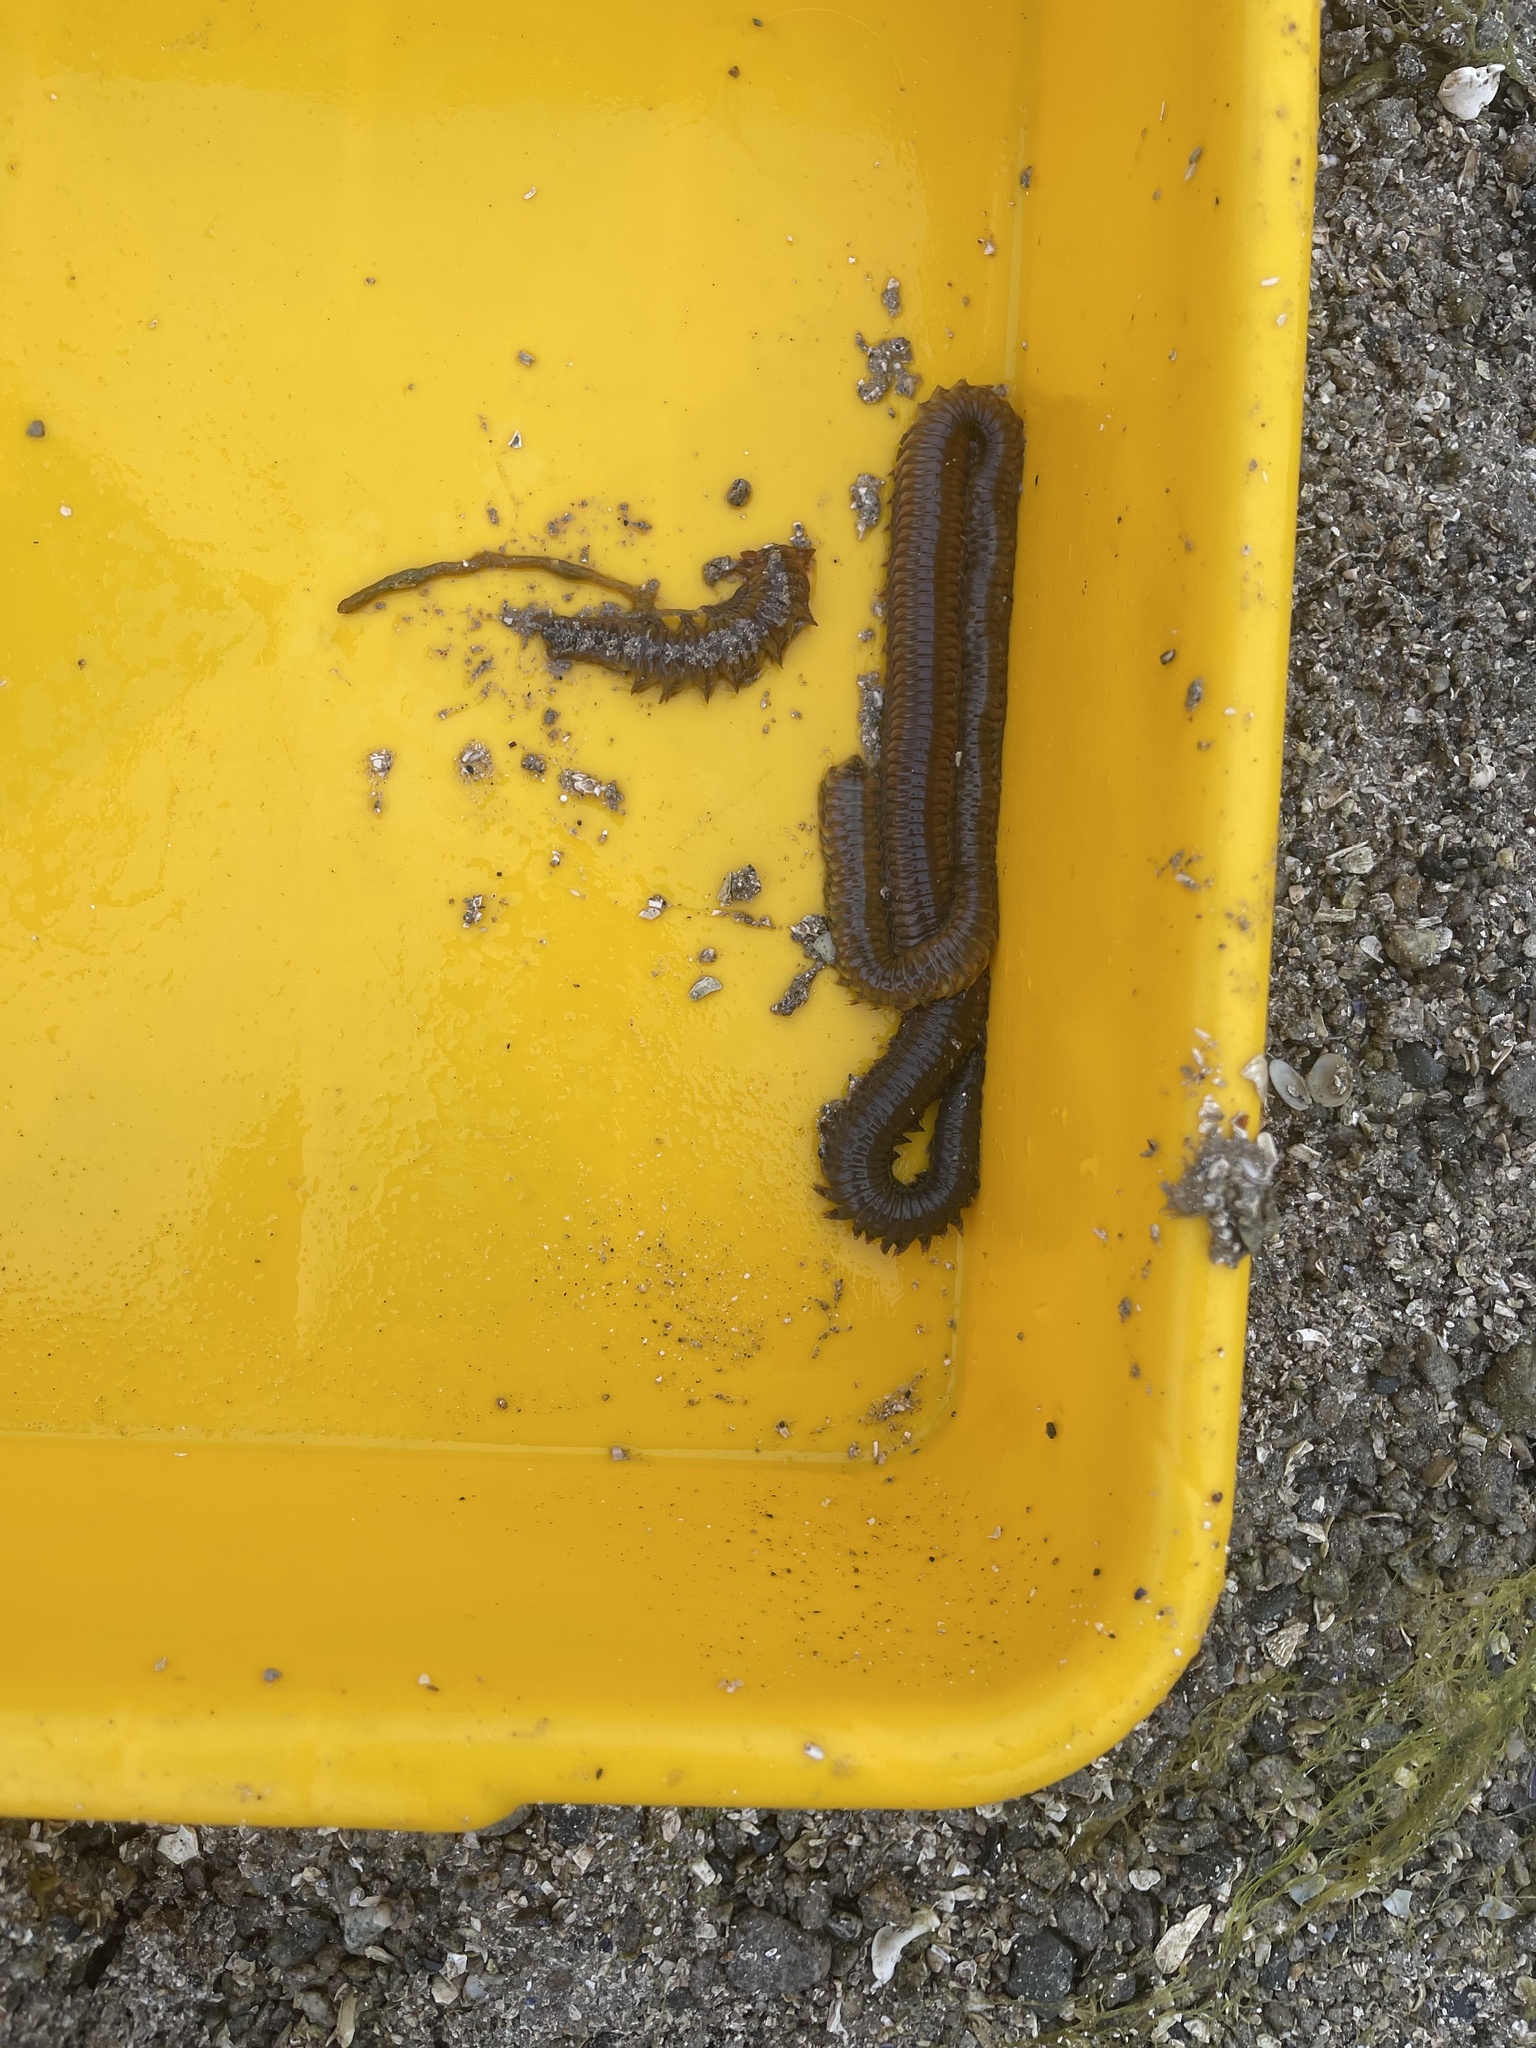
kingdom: Animalia
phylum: Annelida
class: Polychaeta
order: Phyllodocida
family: Nereididae
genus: Alitta
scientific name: Alitta williami
